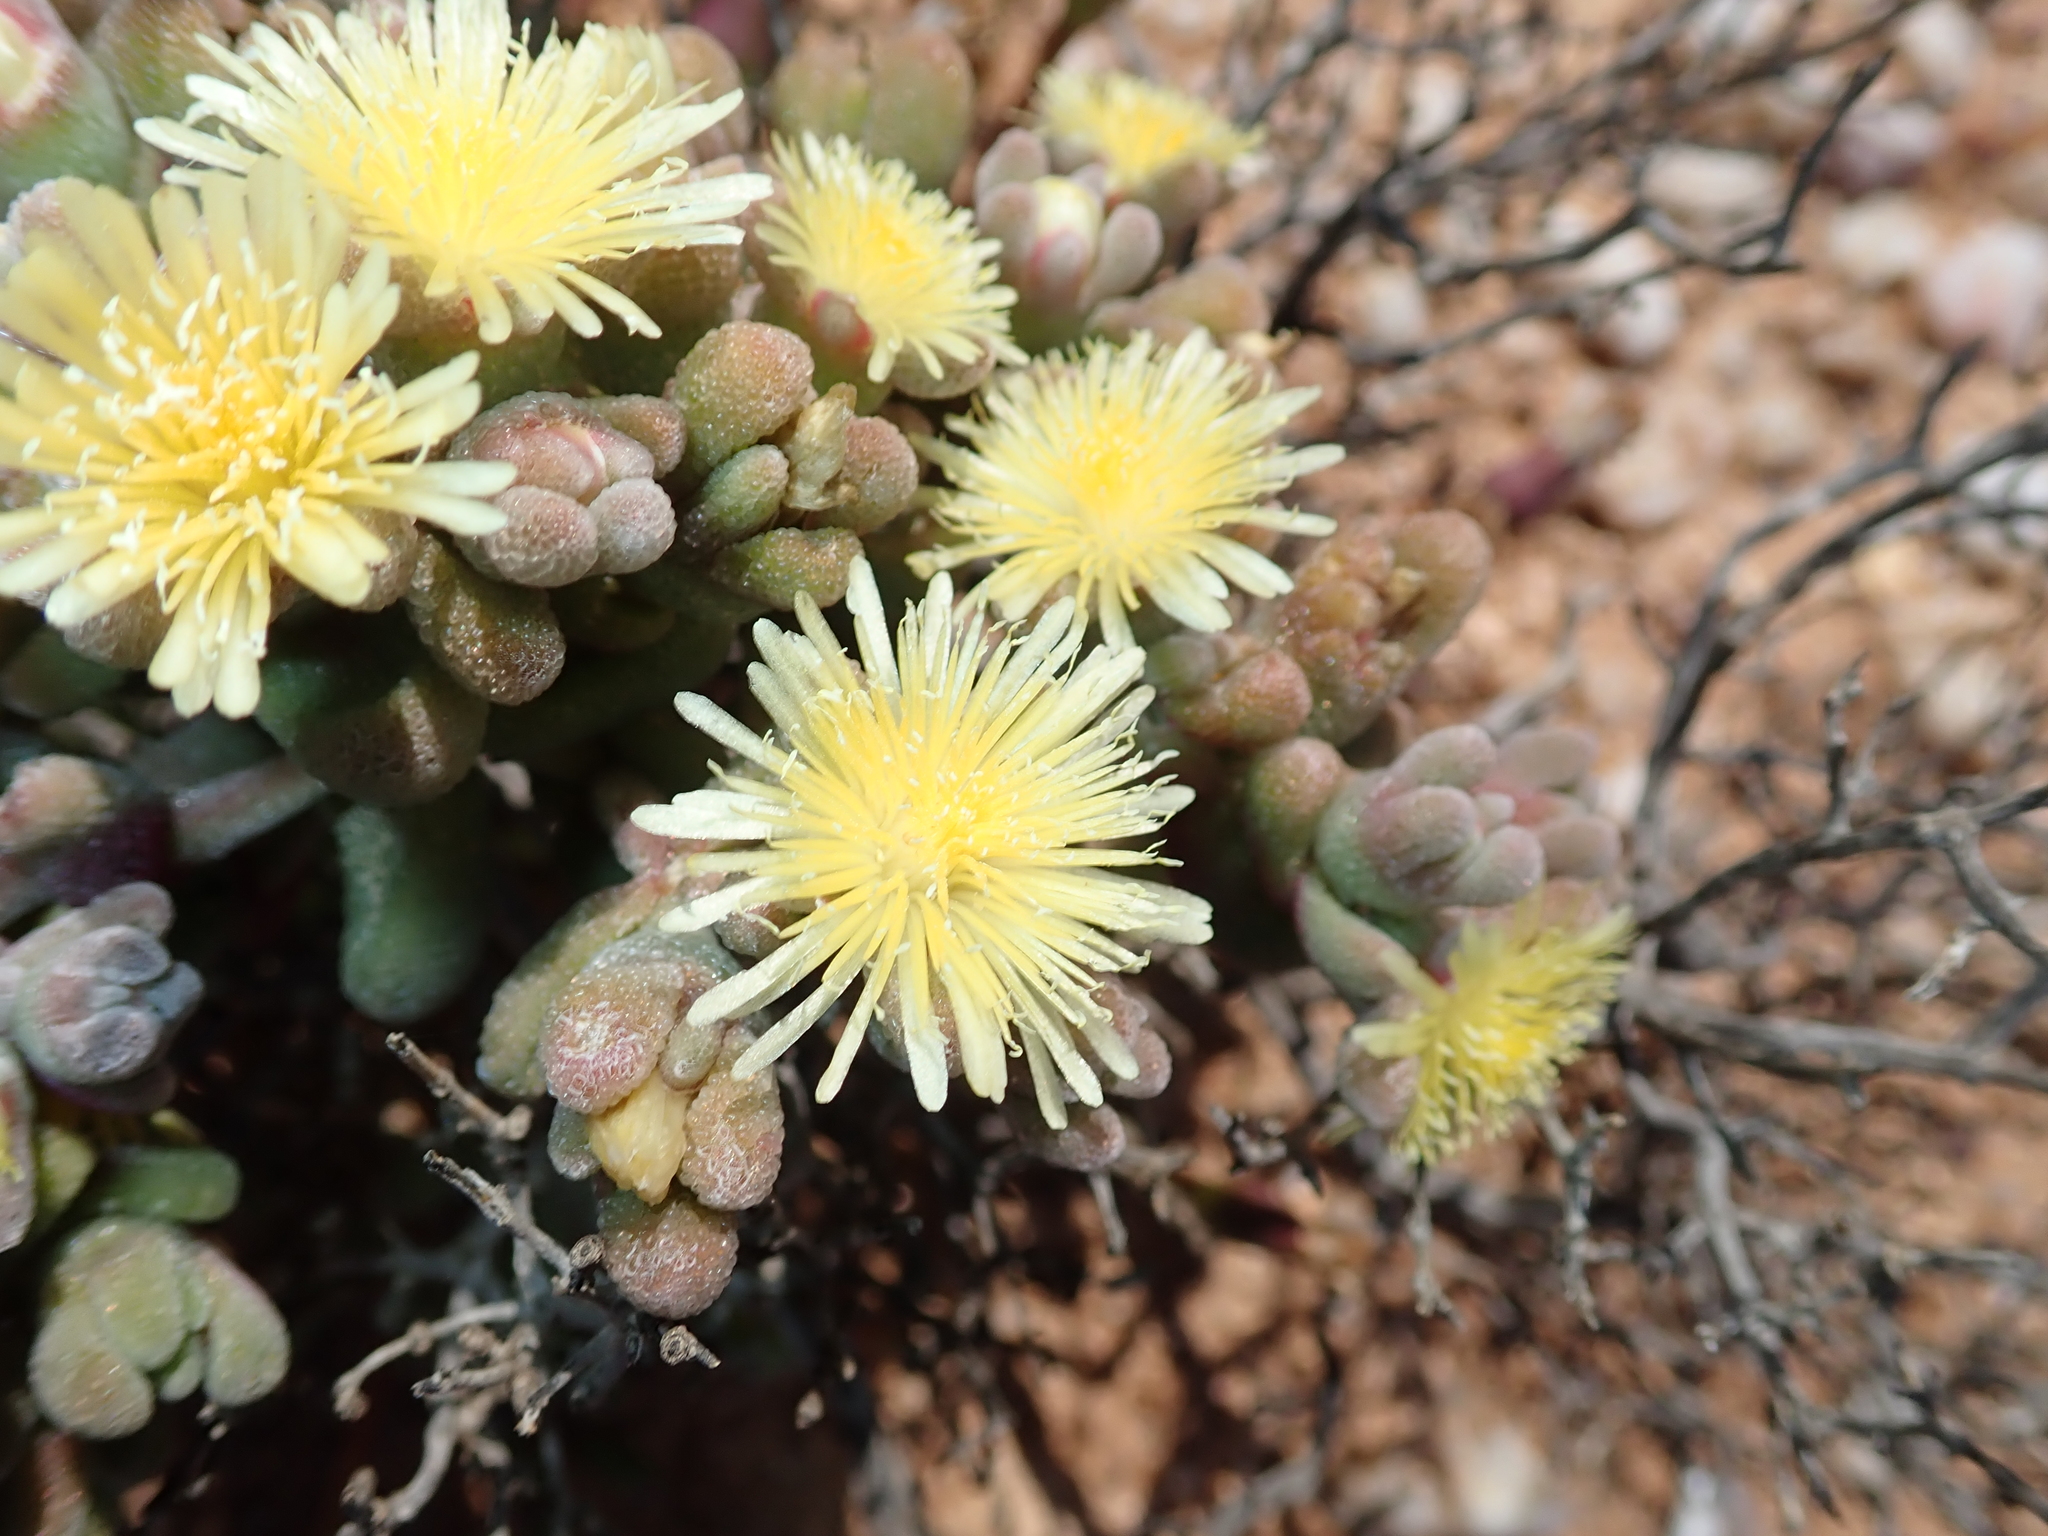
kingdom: Plantae
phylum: Tracheophyta
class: Magnoliopsida
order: Caryophyllales
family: Aizoaceae
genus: Mesembryanthemum
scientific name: Mesembryanthemum lilliputanum
